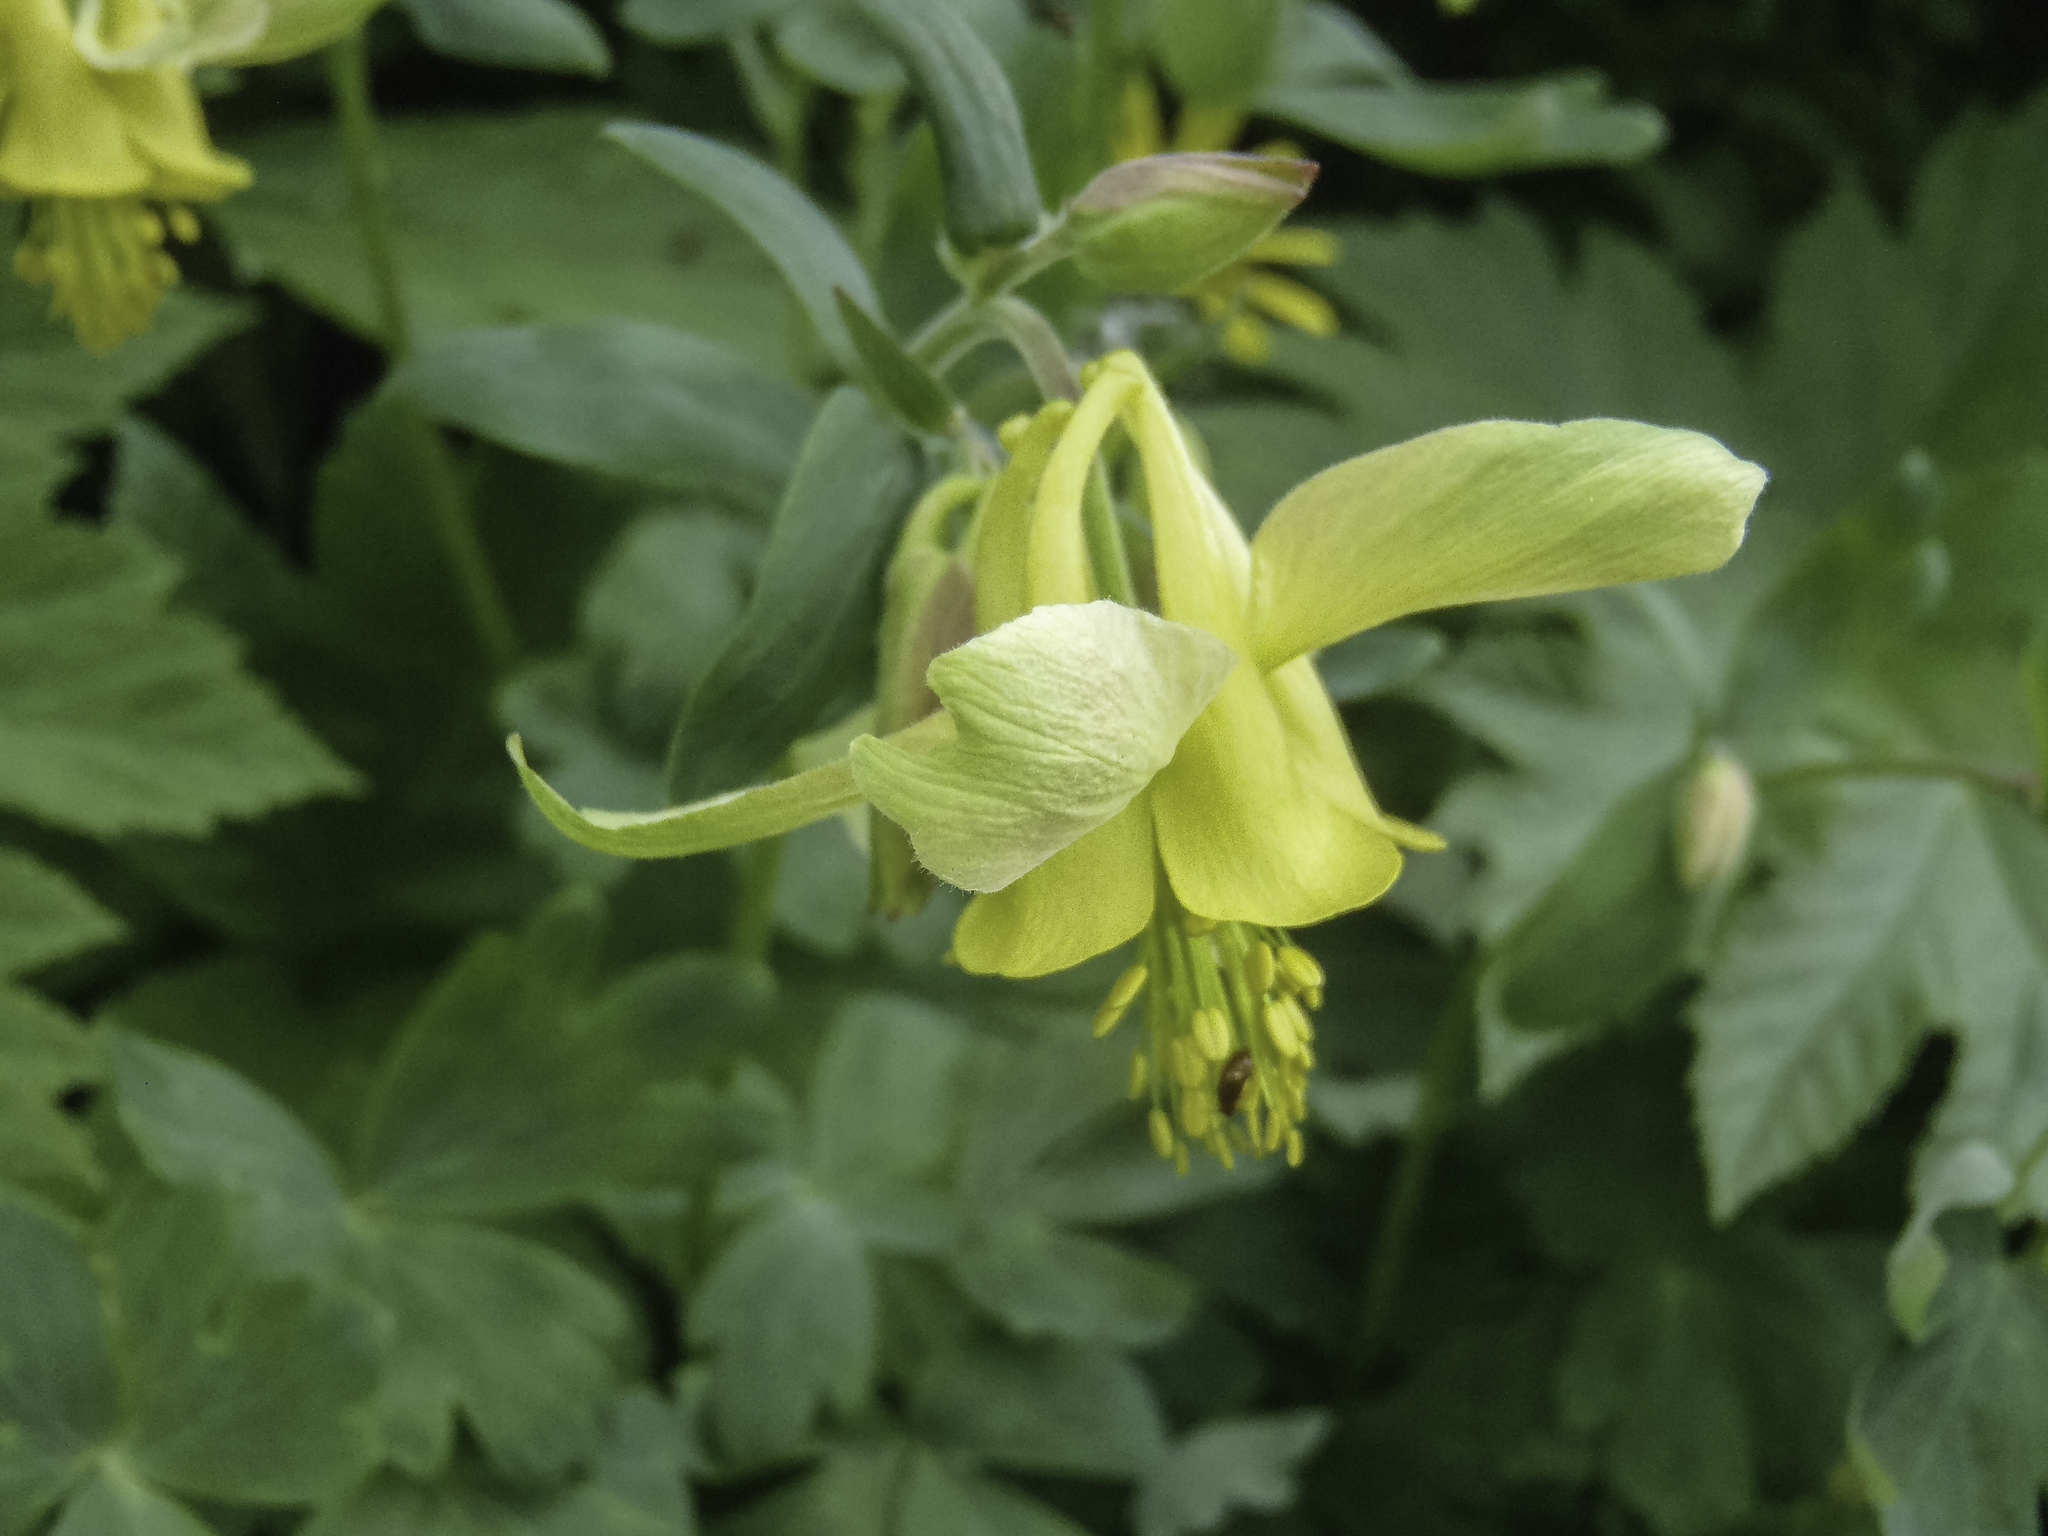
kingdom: Plantae
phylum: Tracheophyta
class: Magnoliopsida
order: Ranunculales
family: Ranunculaceae
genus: Aquilegia
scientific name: Aquilegia flavescens
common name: Yellow columbine
